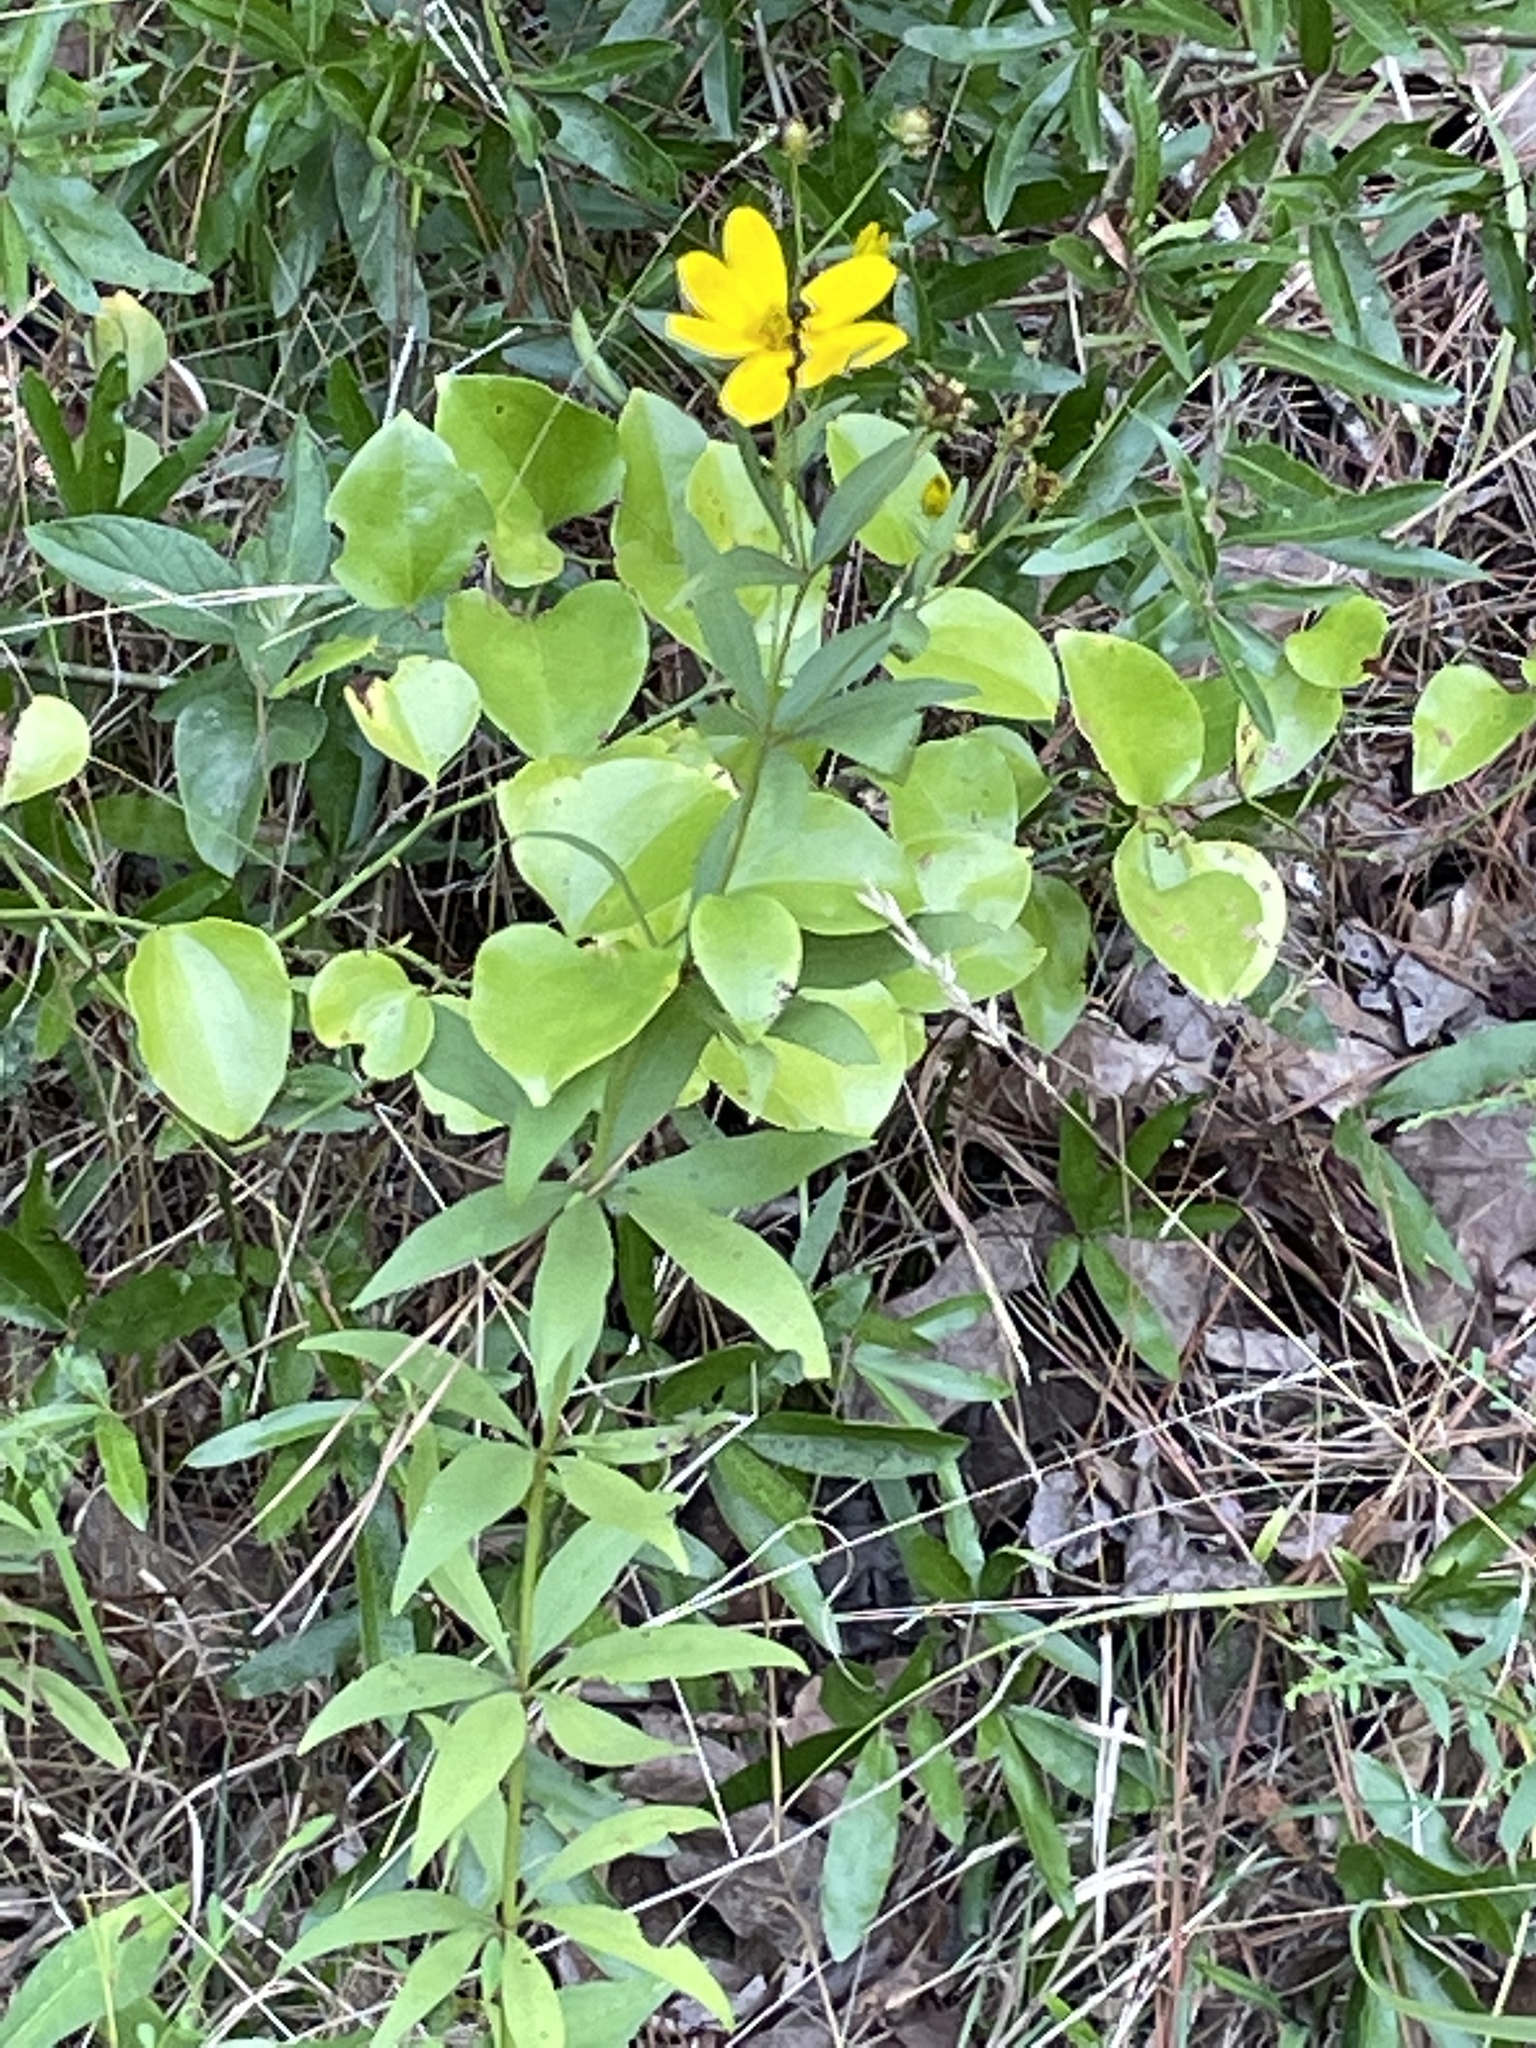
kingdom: Plantae
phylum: Tracheophyta
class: Magnoliopsida
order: Asterales
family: Asteraceae
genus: Coreopsis
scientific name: Coreopsis major
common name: Forest tickseed
